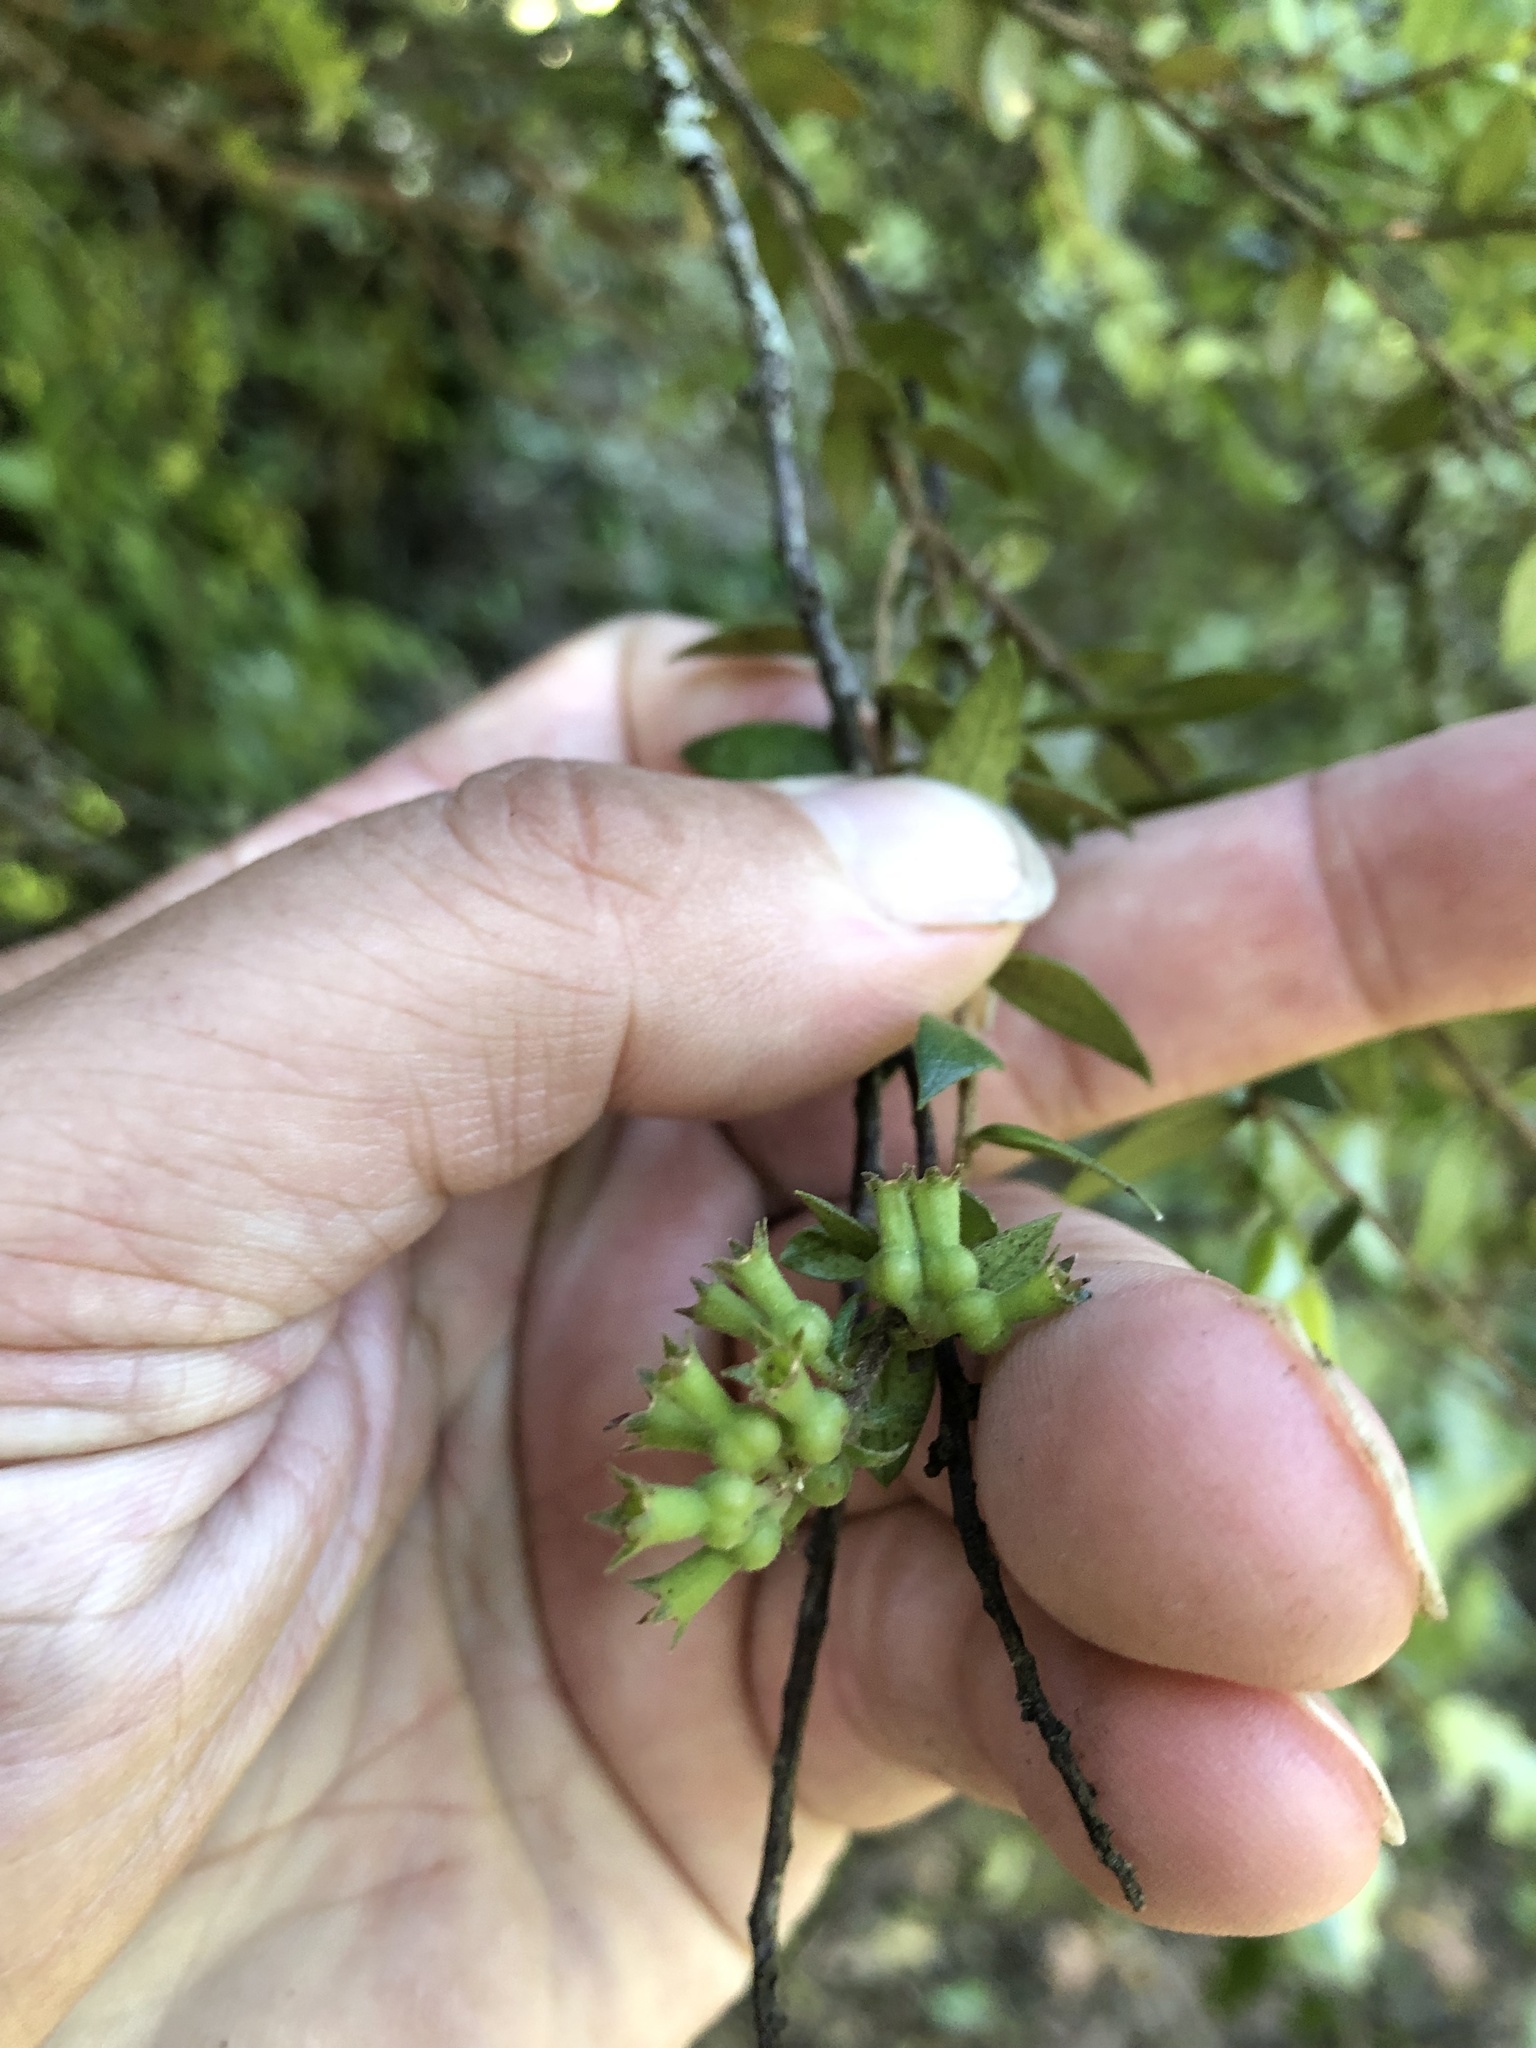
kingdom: Plantae
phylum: Tracheophyta
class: Magnoliopsida
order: Myrtales
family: Myrtaceae
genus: Metrosideros
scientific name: Metrosideros colensoi
